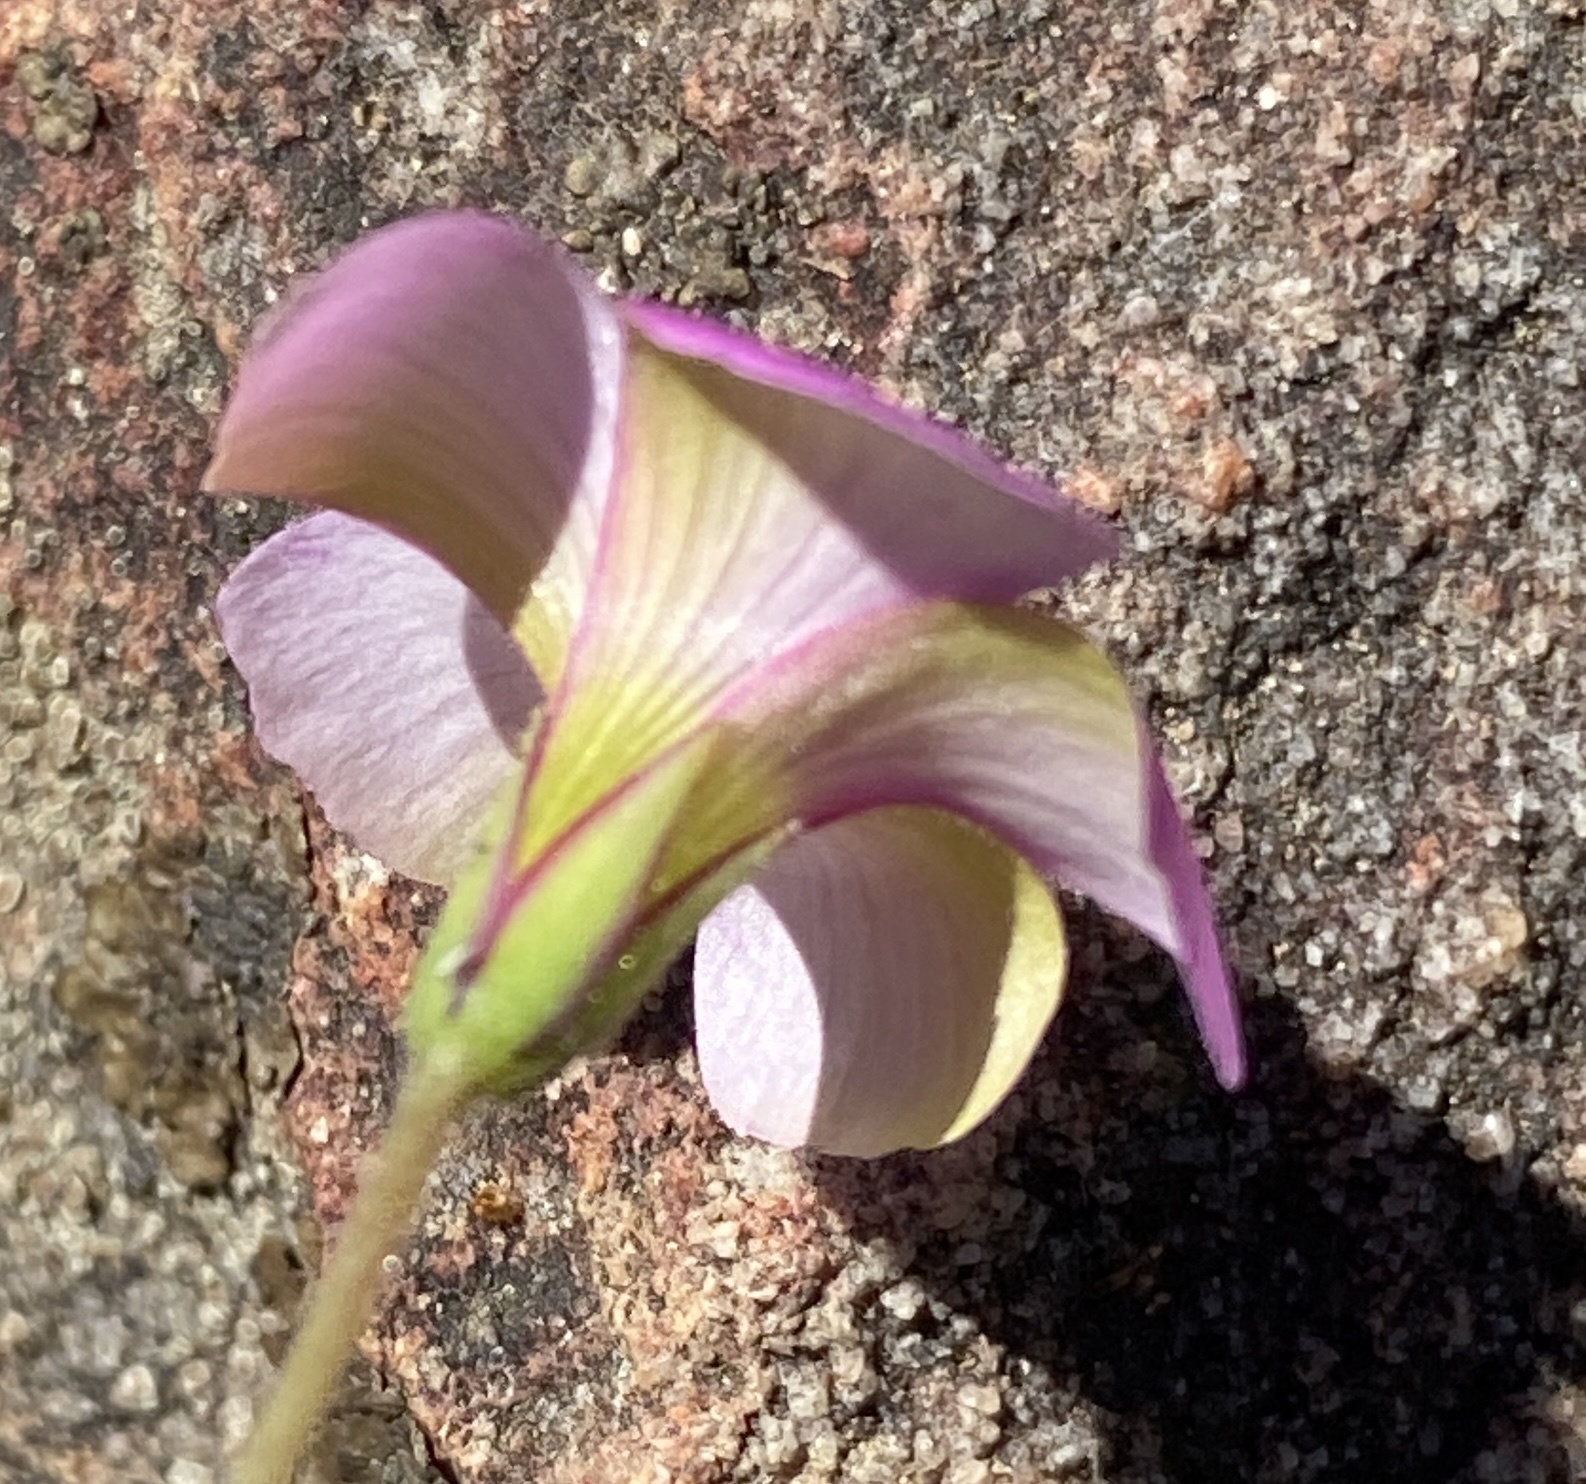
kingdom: Plantae
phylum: Tracheophyta
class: Magnoliopsida
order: Oxalidales
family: Oxalidaceae
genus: Oxalis
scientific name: Oxalis livida
